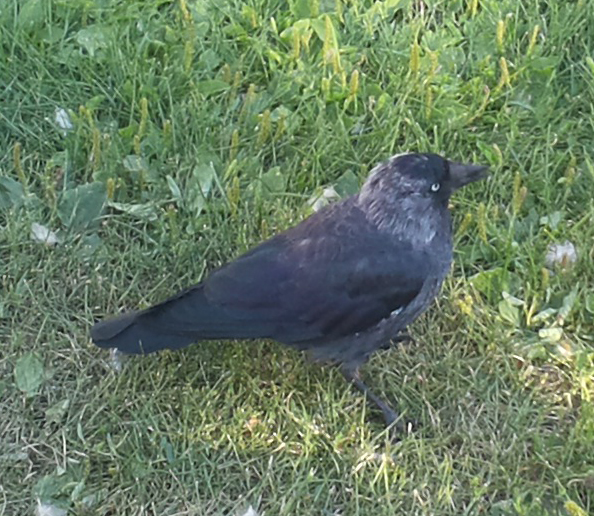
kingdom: Animalia
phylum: Chordata
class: Aves
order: Passeriformes
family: Corvidae
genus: Coloeus
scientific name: Coloeus monedula
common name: Western jackdaw
